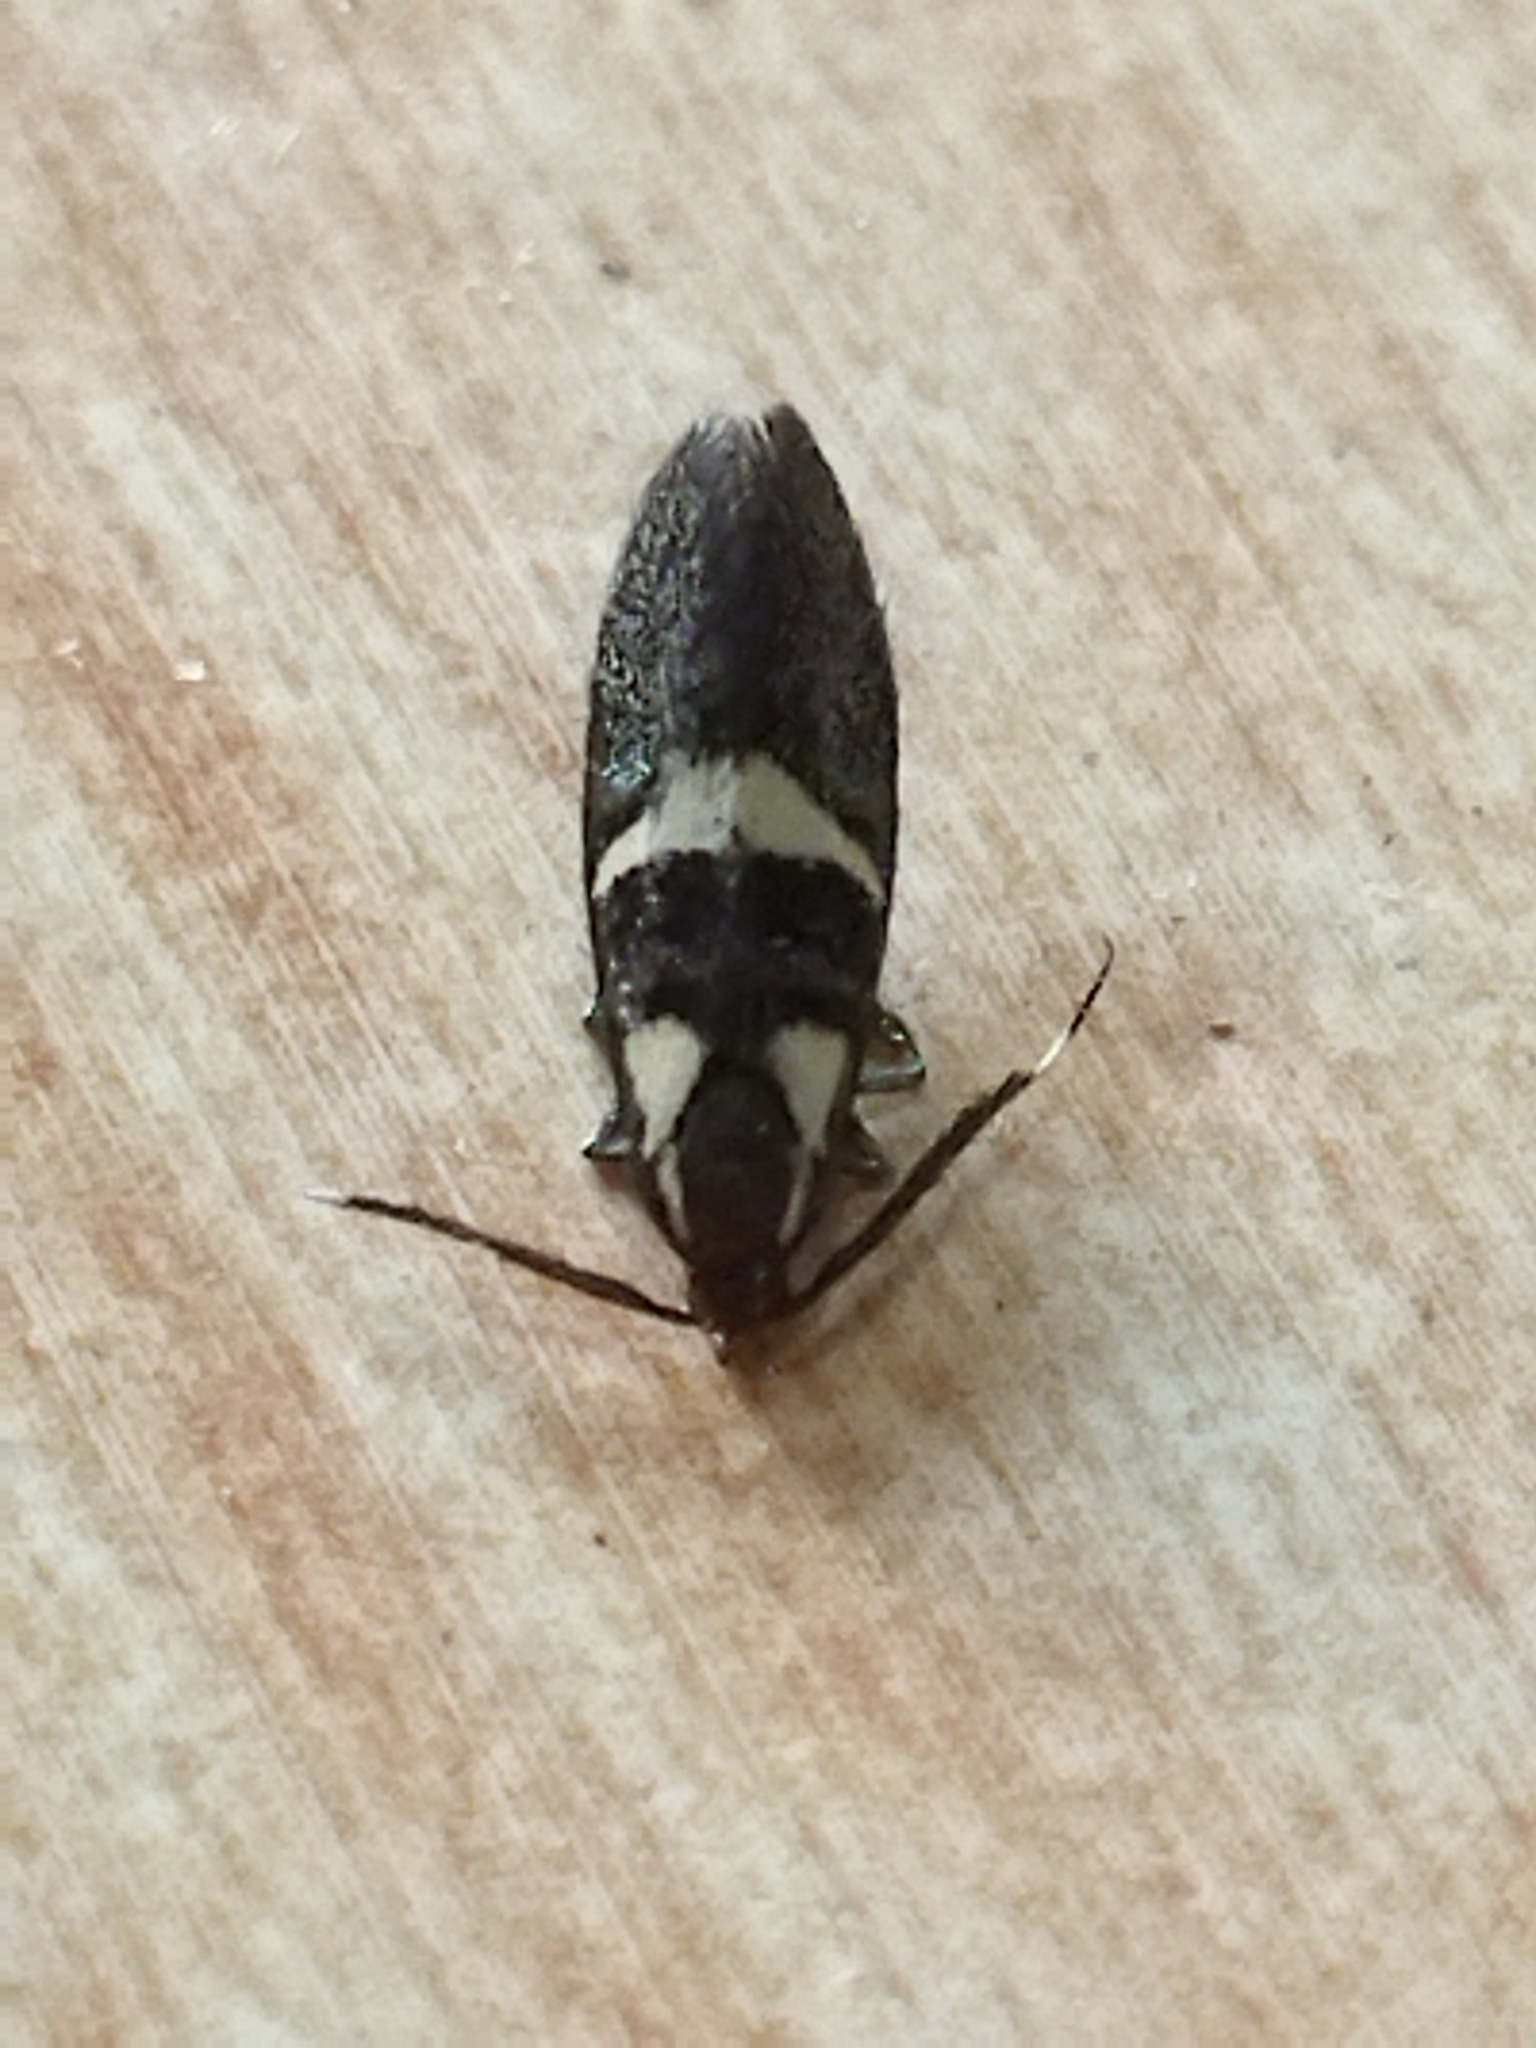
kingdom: Animalia
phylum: Arthropoda
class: Insecta
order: Lepidoptera
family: Oecophoridae
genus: Dafa
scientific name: Dafa oliviella
